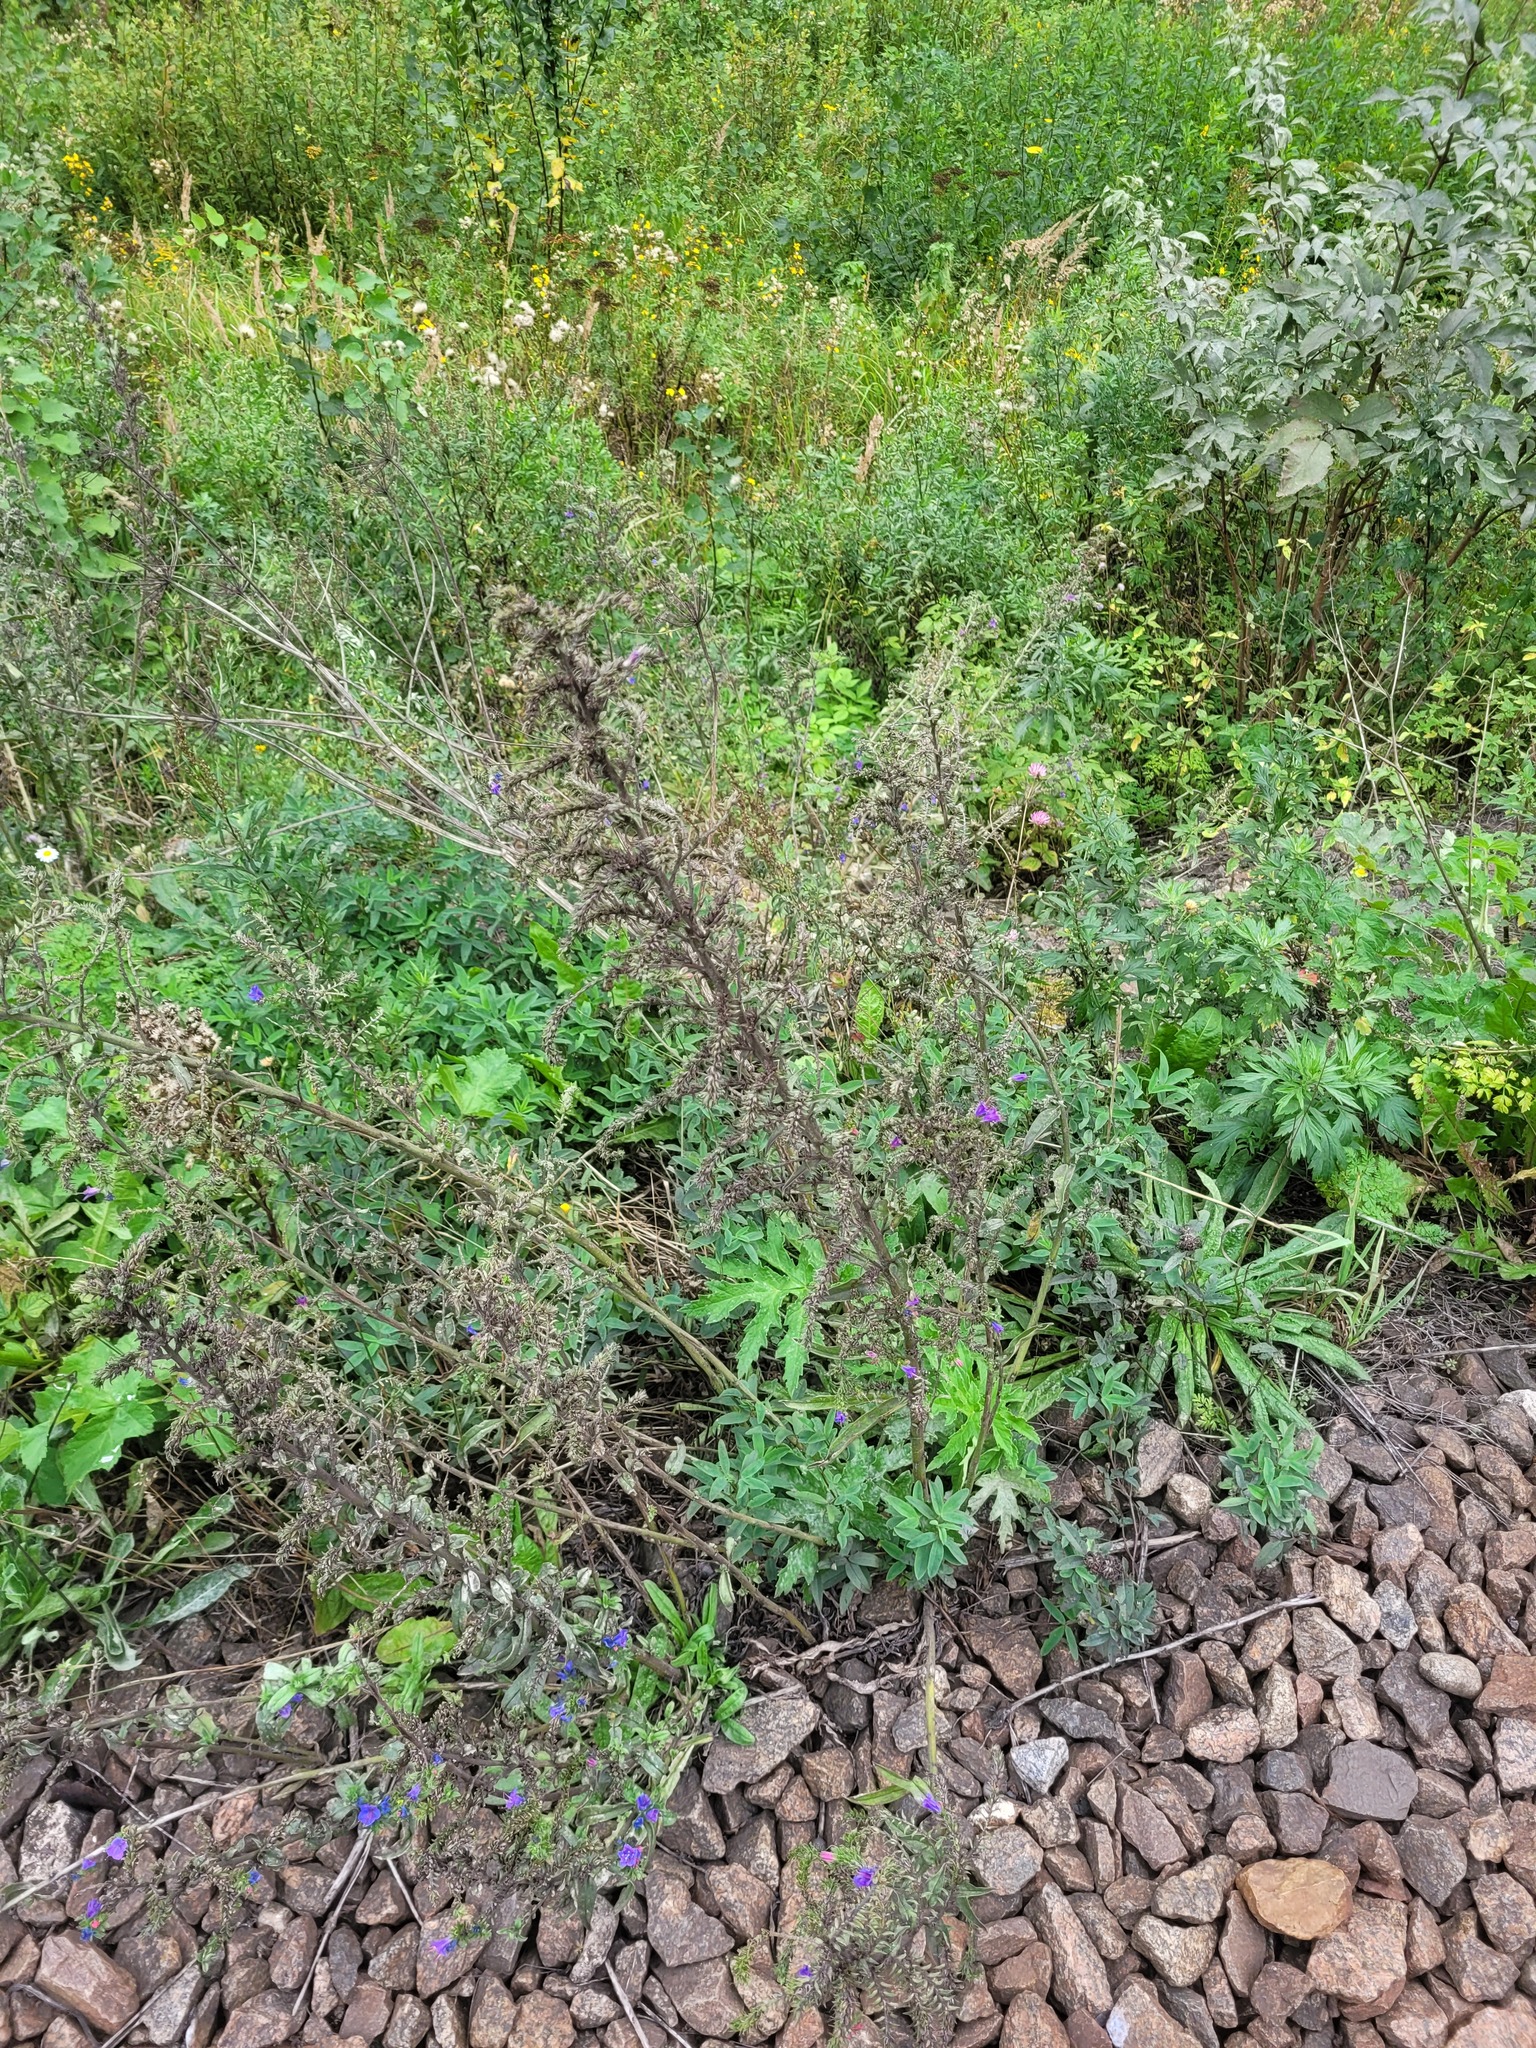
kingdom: Plantae
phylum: Tracheophyta
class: Magnoliopsida
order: Boraginales
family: Boraginaceae
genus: Echium
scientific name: Echium vulgare
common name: Common viper's bugloss
